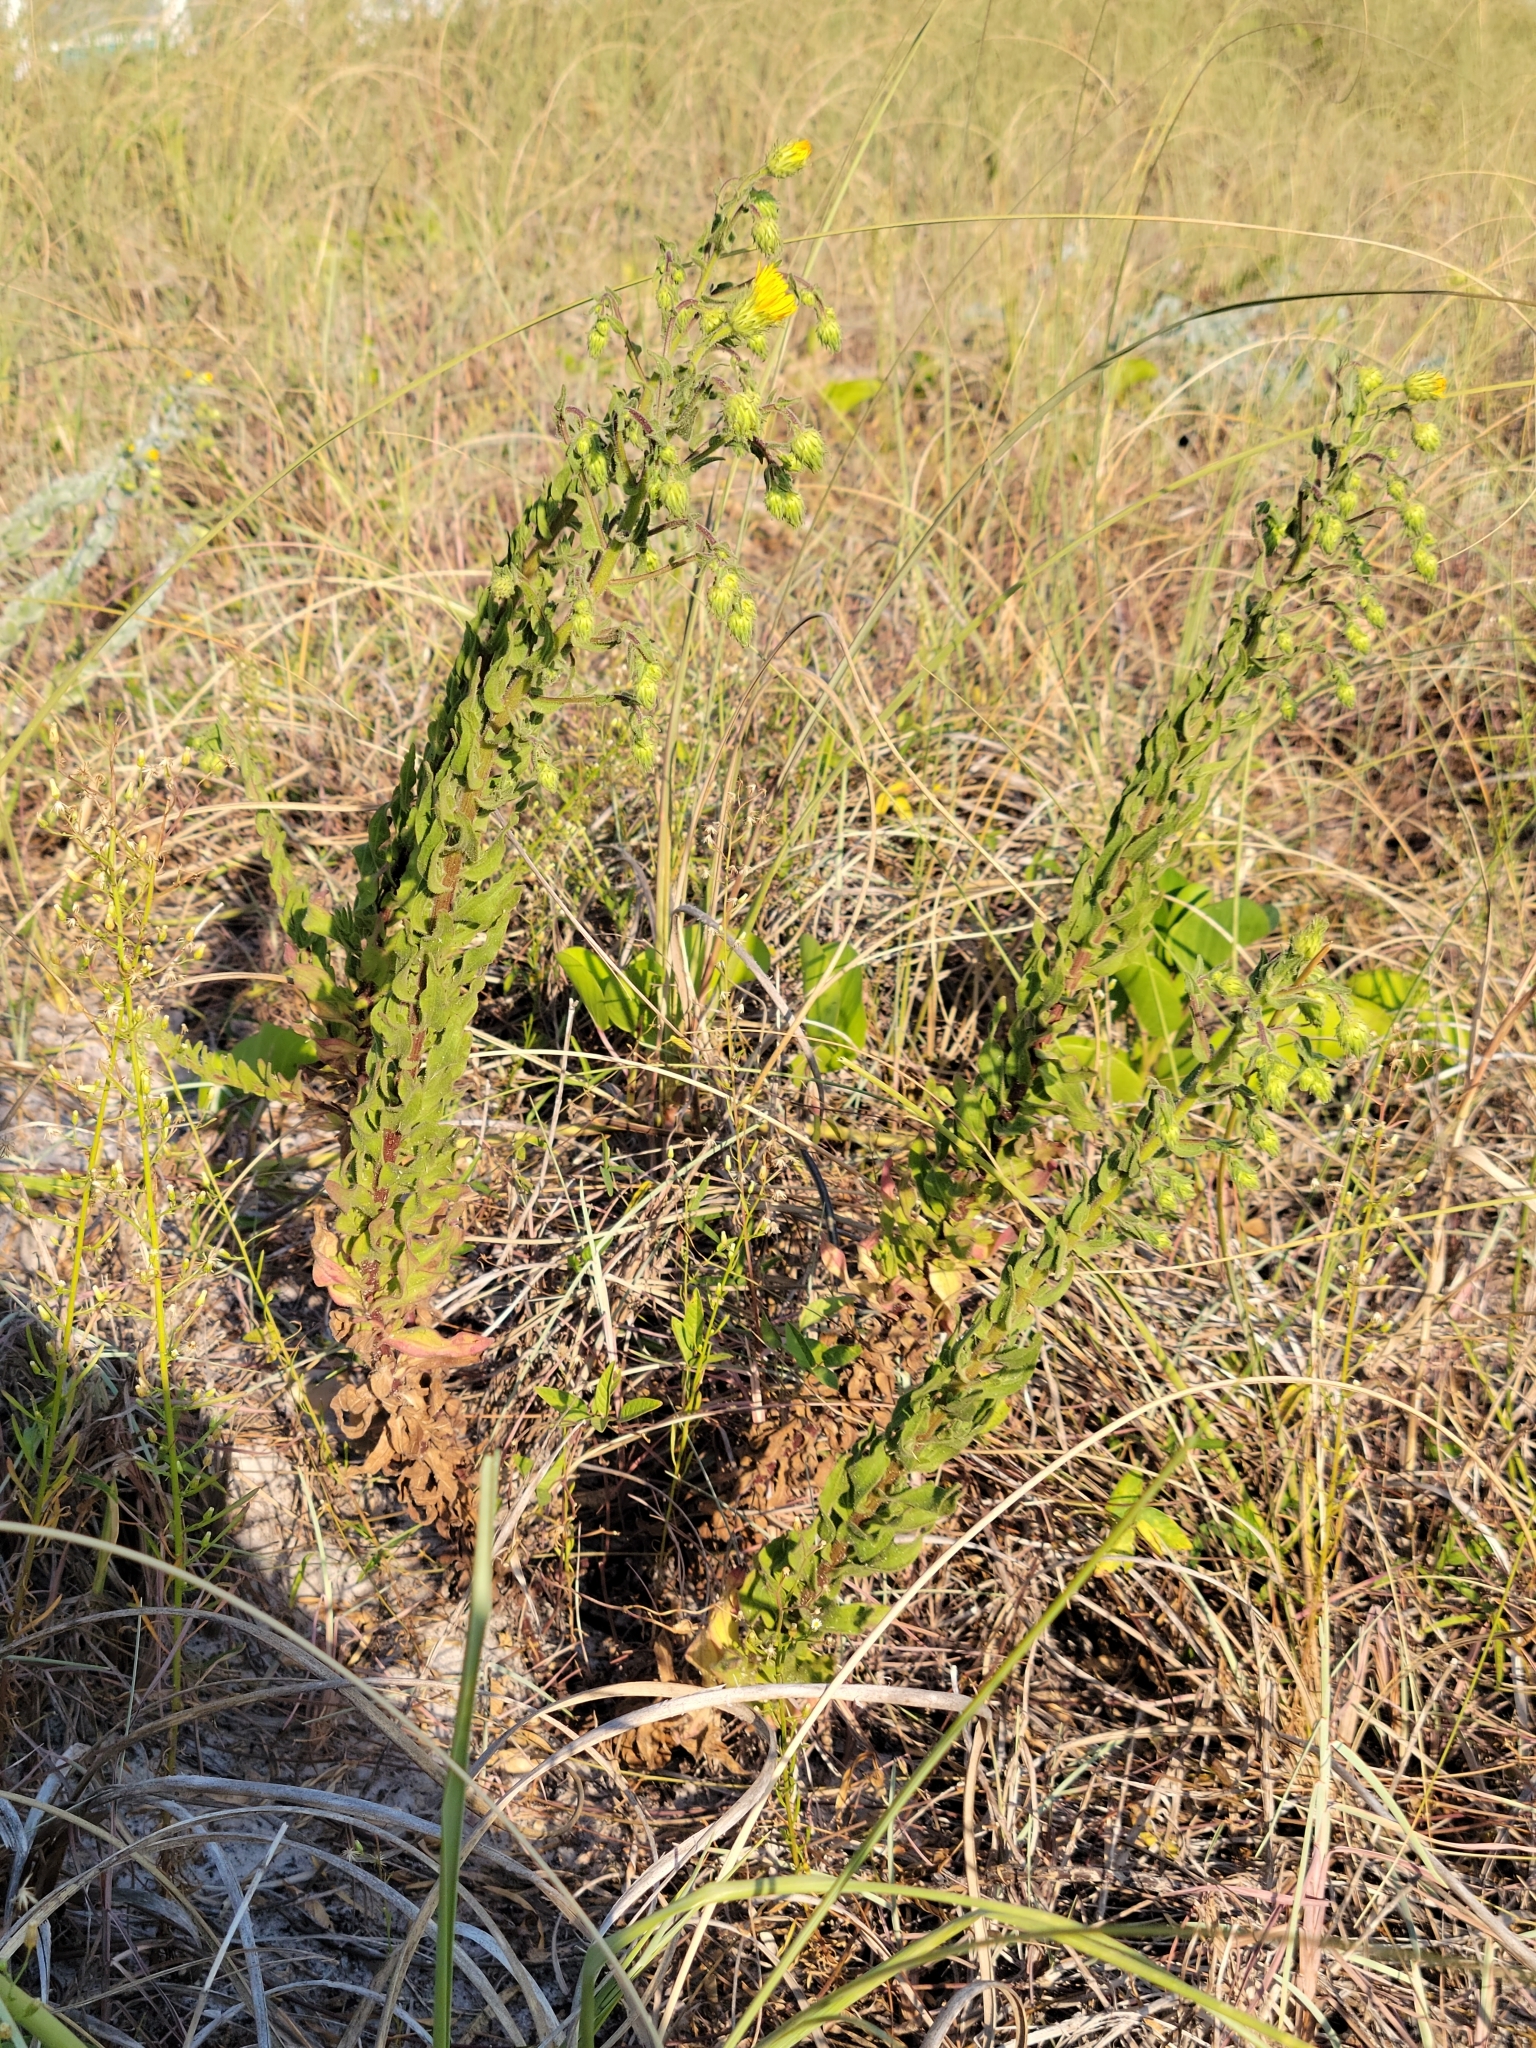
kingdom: Plantae
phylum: Tracheophyta
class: Magnoliopsida
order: Asterales
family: Asteraceae
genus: Chrysopsis
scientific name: Chrysopsis godfreyi
